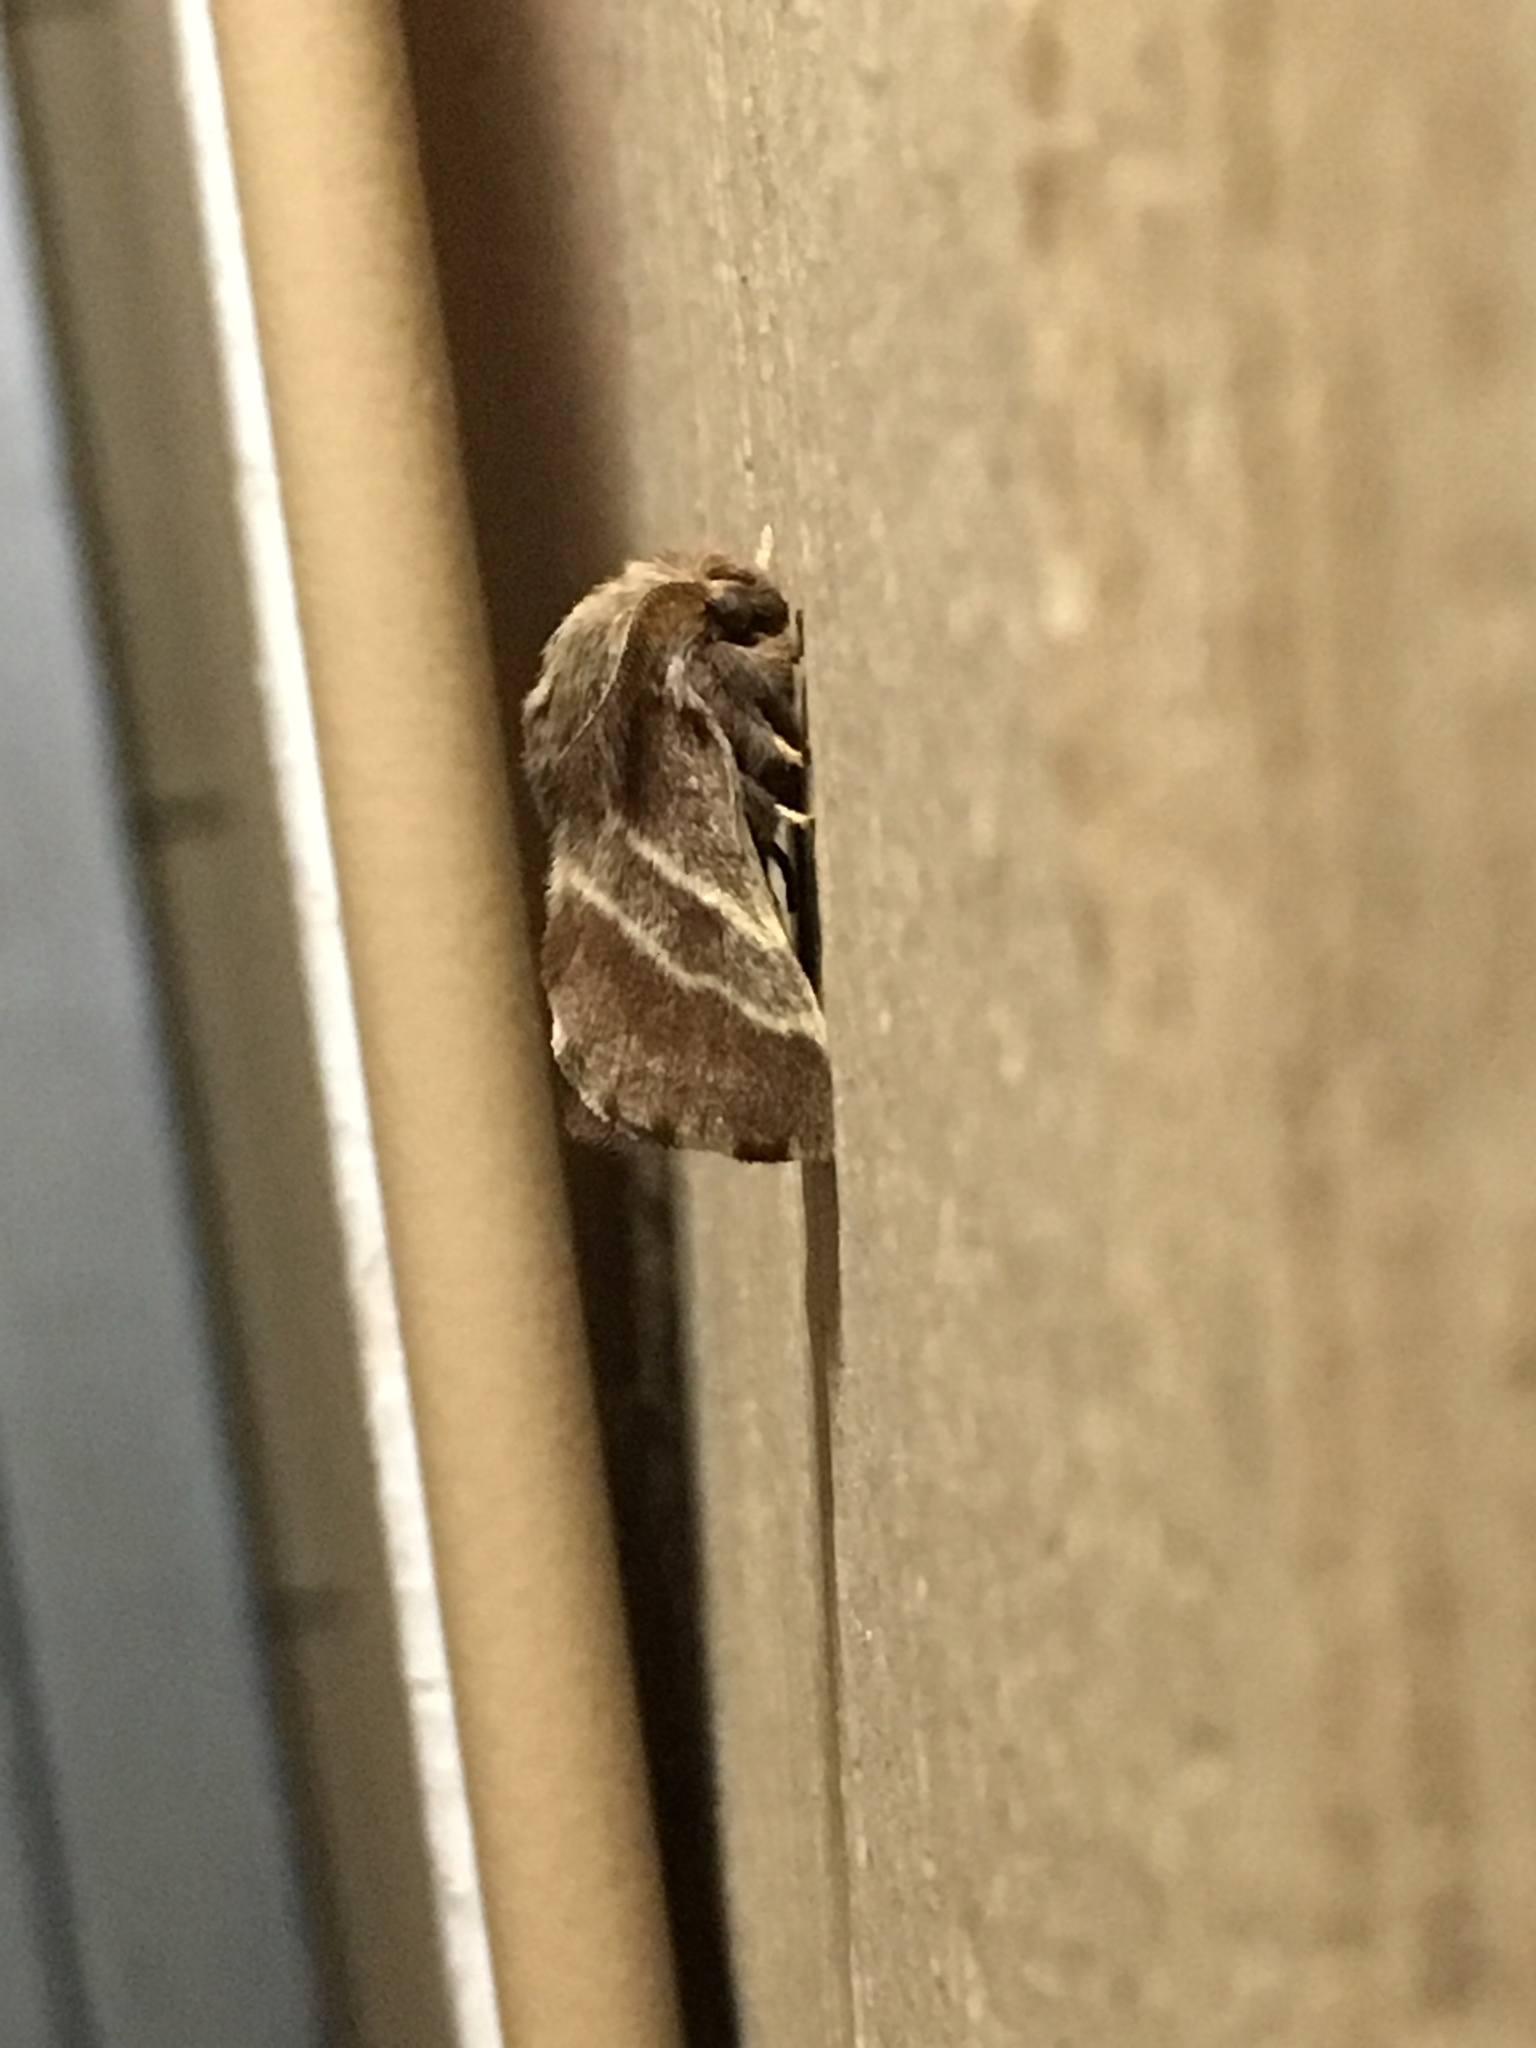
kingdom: Animalia
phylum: Arthropoda
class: Insecta
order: Lepidoptera
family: Lasiocampidae
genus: Malacosoma
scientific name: Malacosoma americana
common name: Eastern tent caterpillar moth
